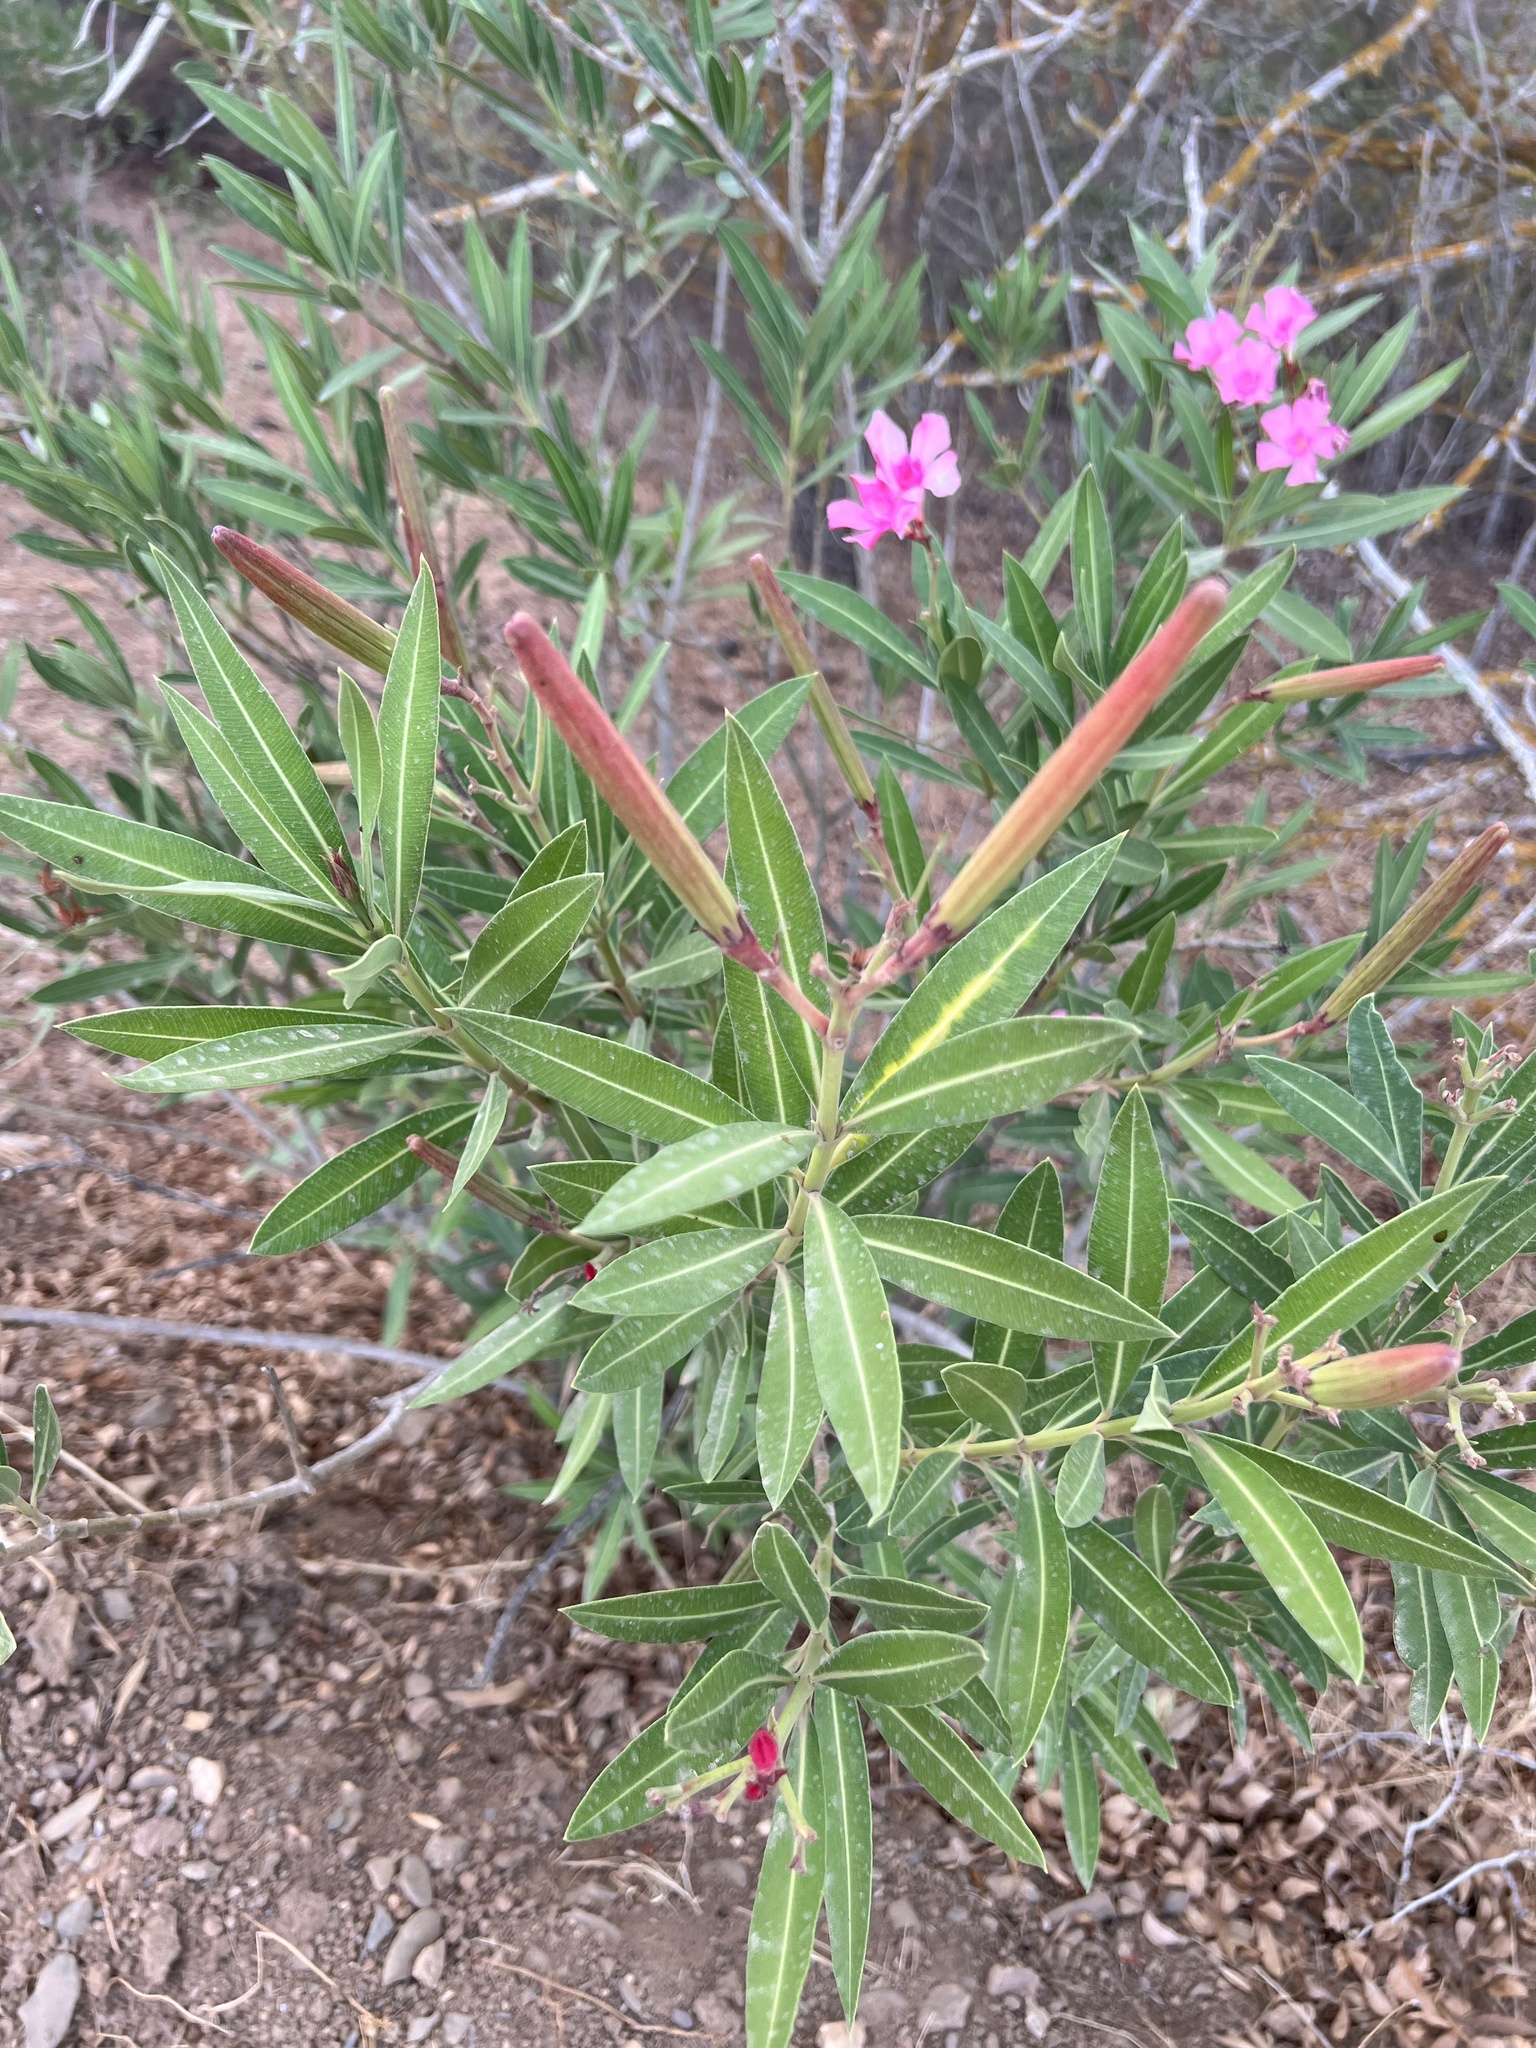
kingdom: Plantae
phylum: Tracheophyta
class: Magnoliopsida
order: Gentianales
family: Apocynaceae
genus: Nerium
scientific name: Nerium oleander
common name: Oleander
